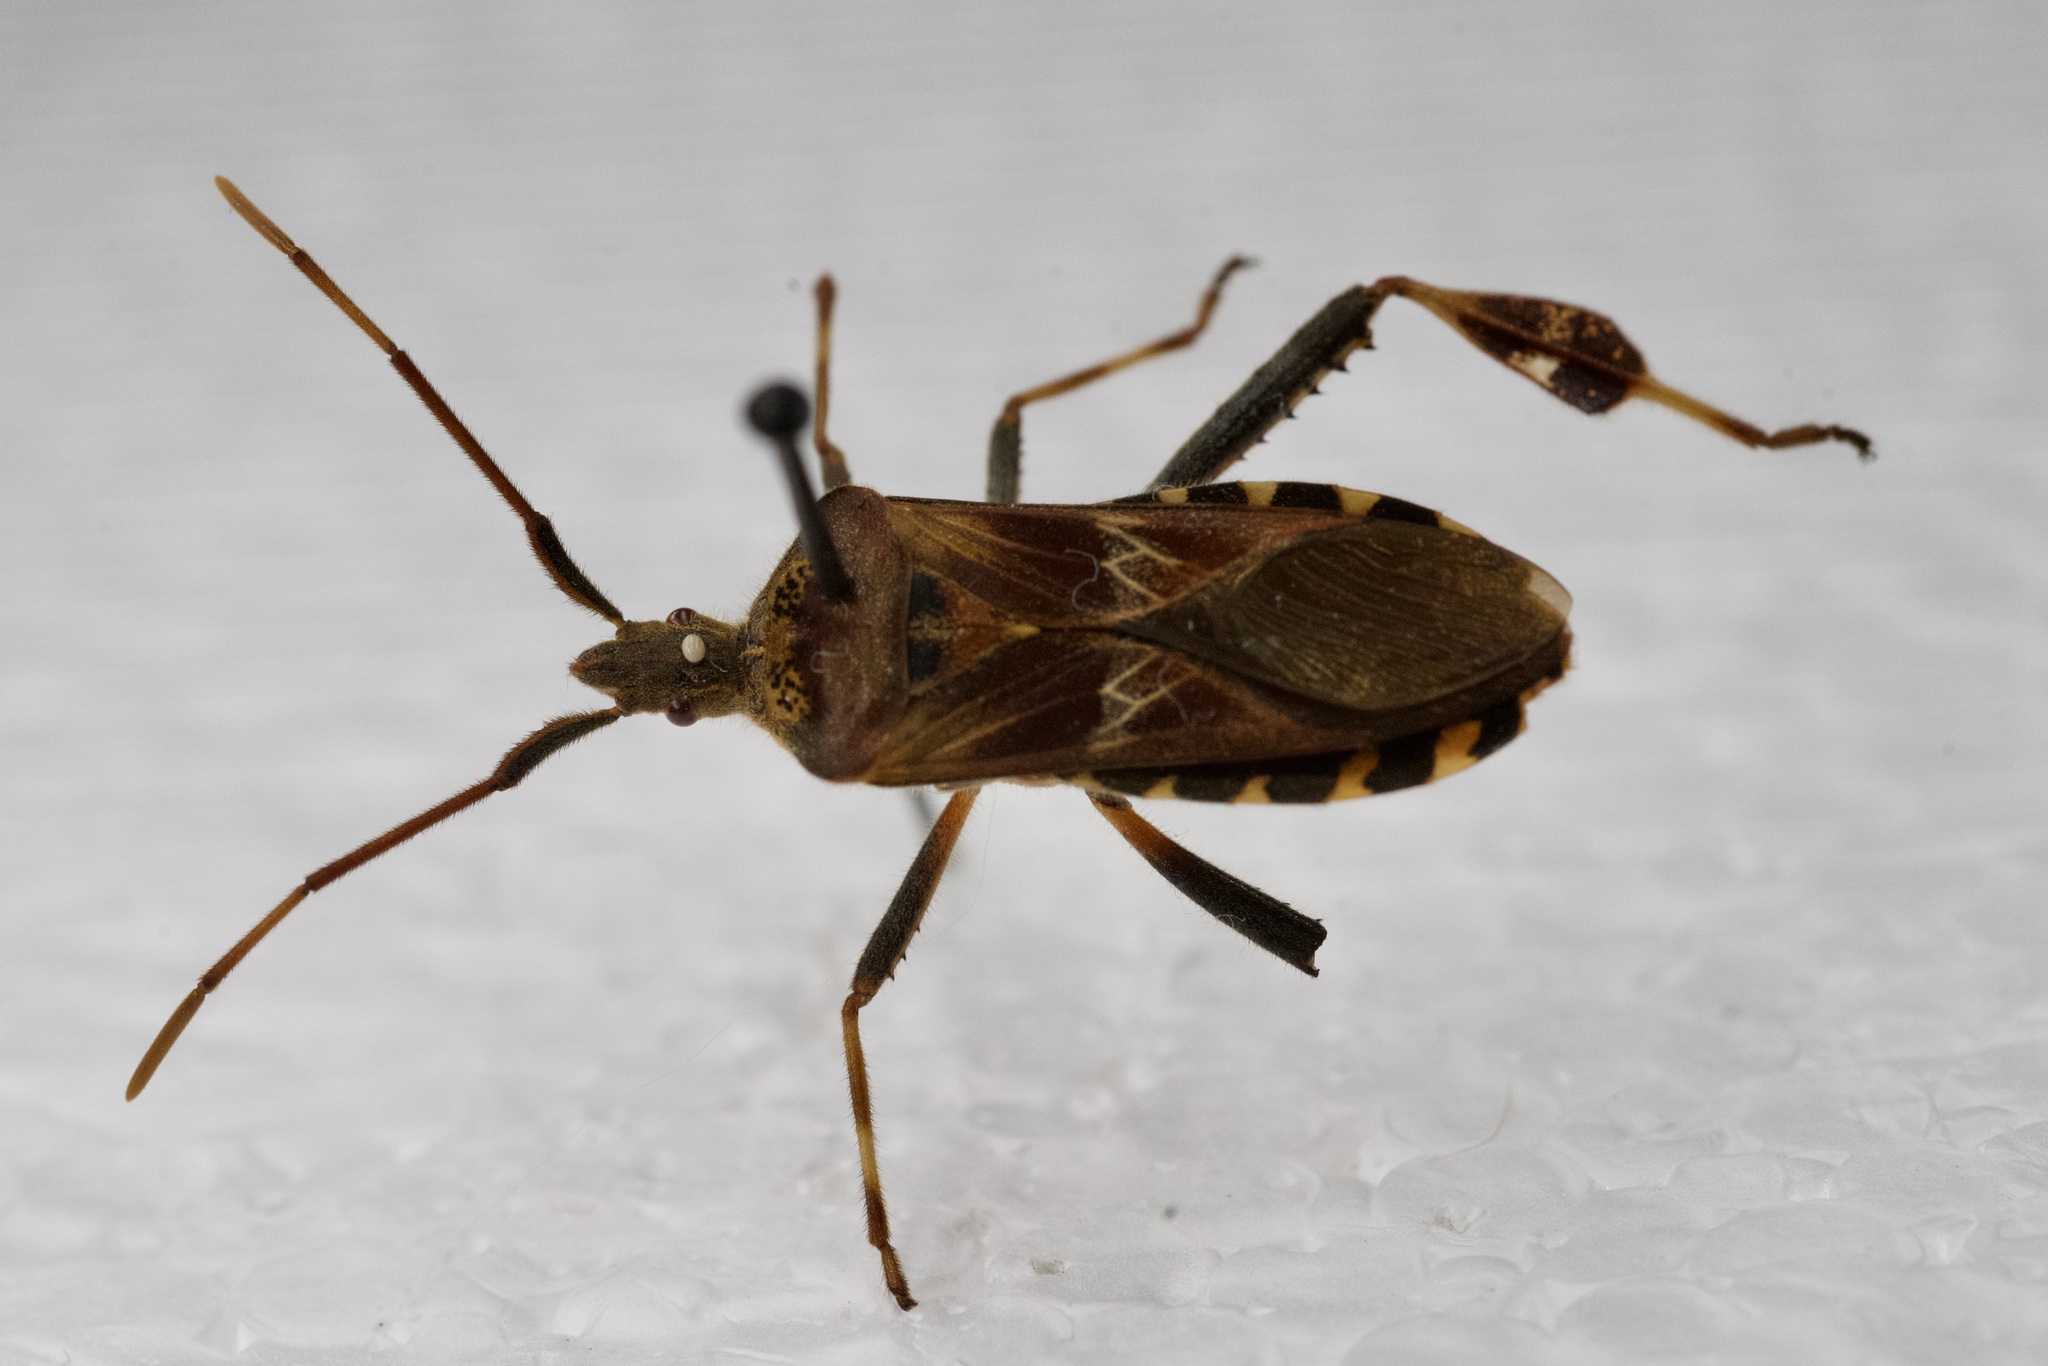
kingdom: Animalia
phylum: Arthropoda
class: Insecta
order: Hemiptera
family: Coreidae
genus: Leptoglossus
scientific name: Leptoglossus occidentalis
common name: Western conifer-seed bug
